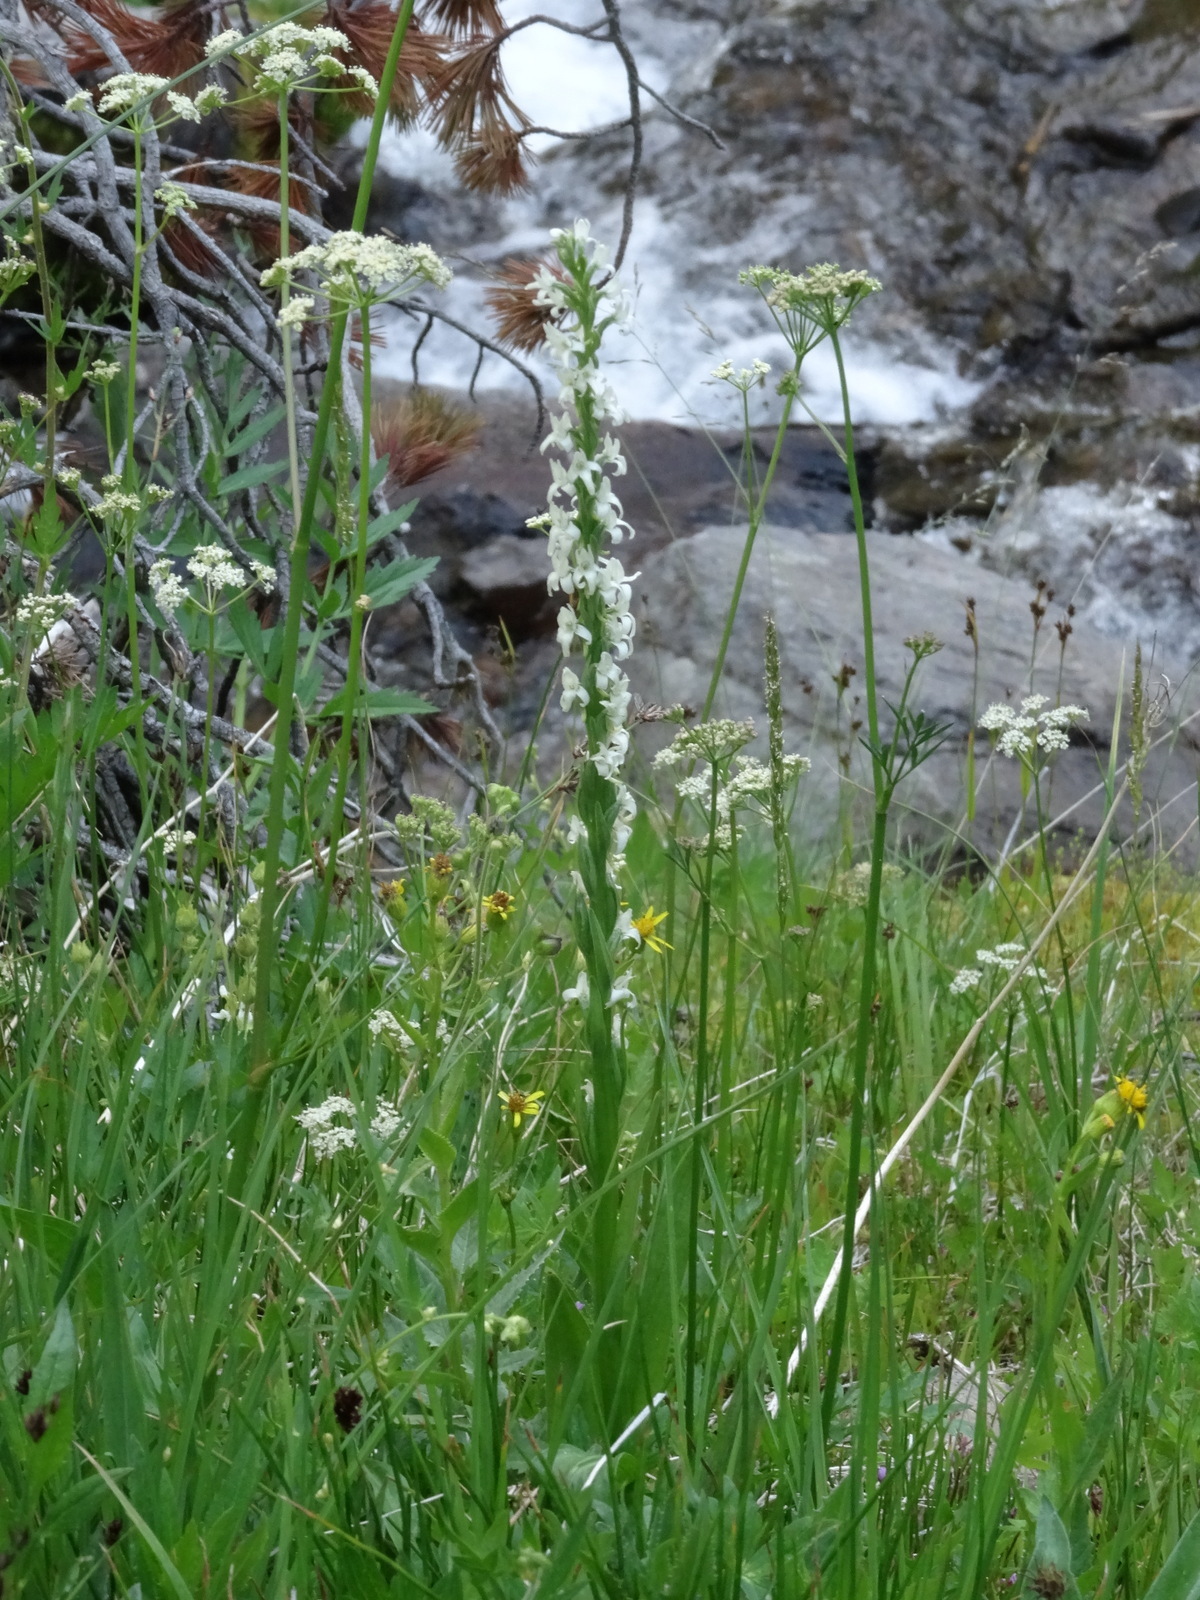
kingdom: Plantae
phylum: Tracheophyta
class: Liliopsida
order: Asparagales
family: Orchidaceae
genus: Platanthera
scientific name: Platanthera dilatata
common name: Bog candles
